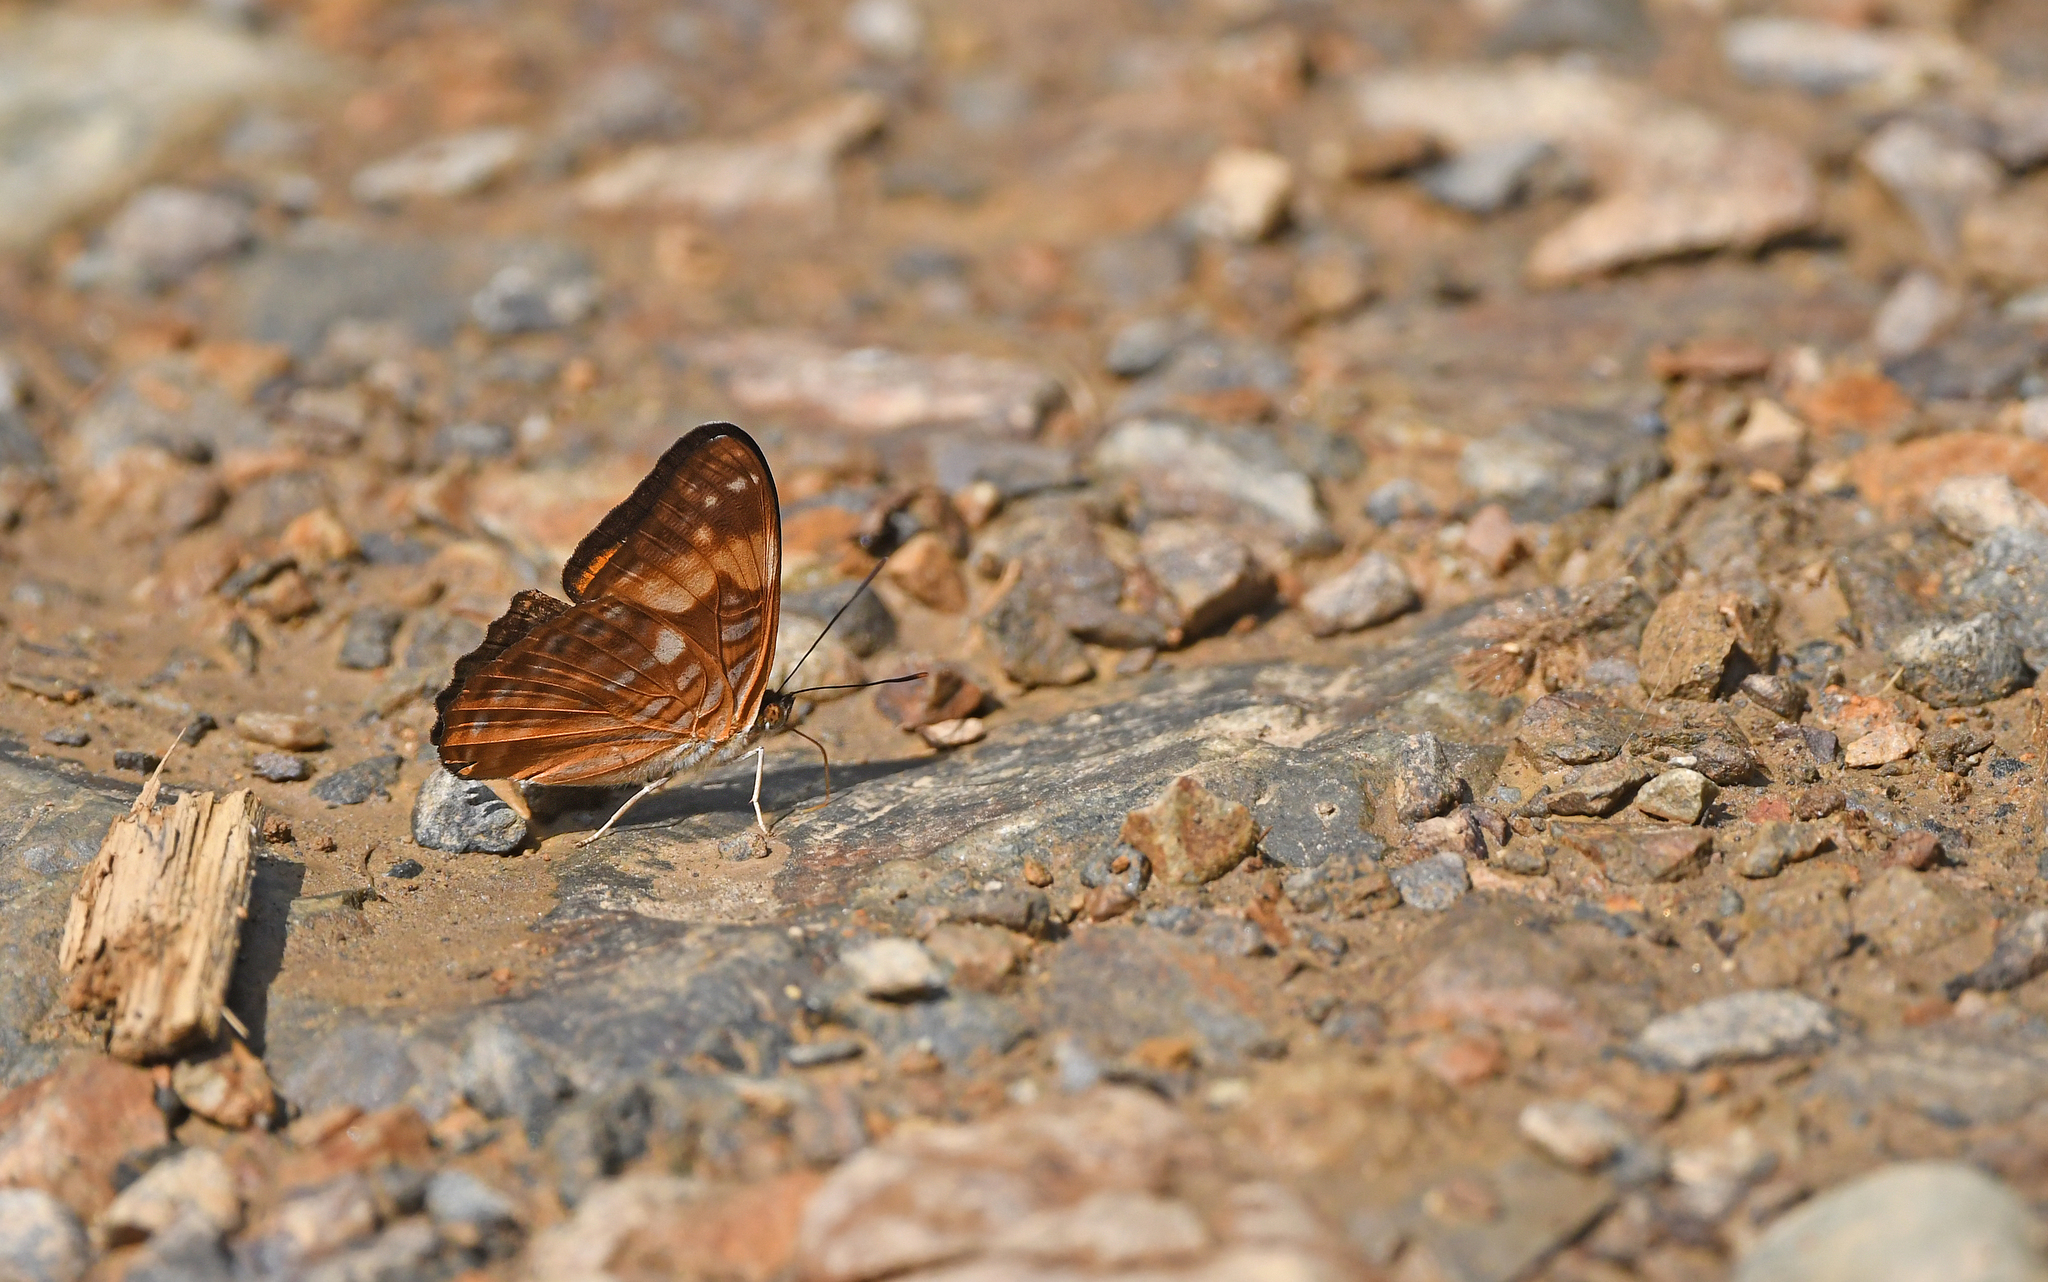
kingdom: Animalia
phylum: Arthropoda
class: Insecta
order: Lepidoptera
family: Nymphalidae
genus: Limenitis
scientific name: Limenitis zina
